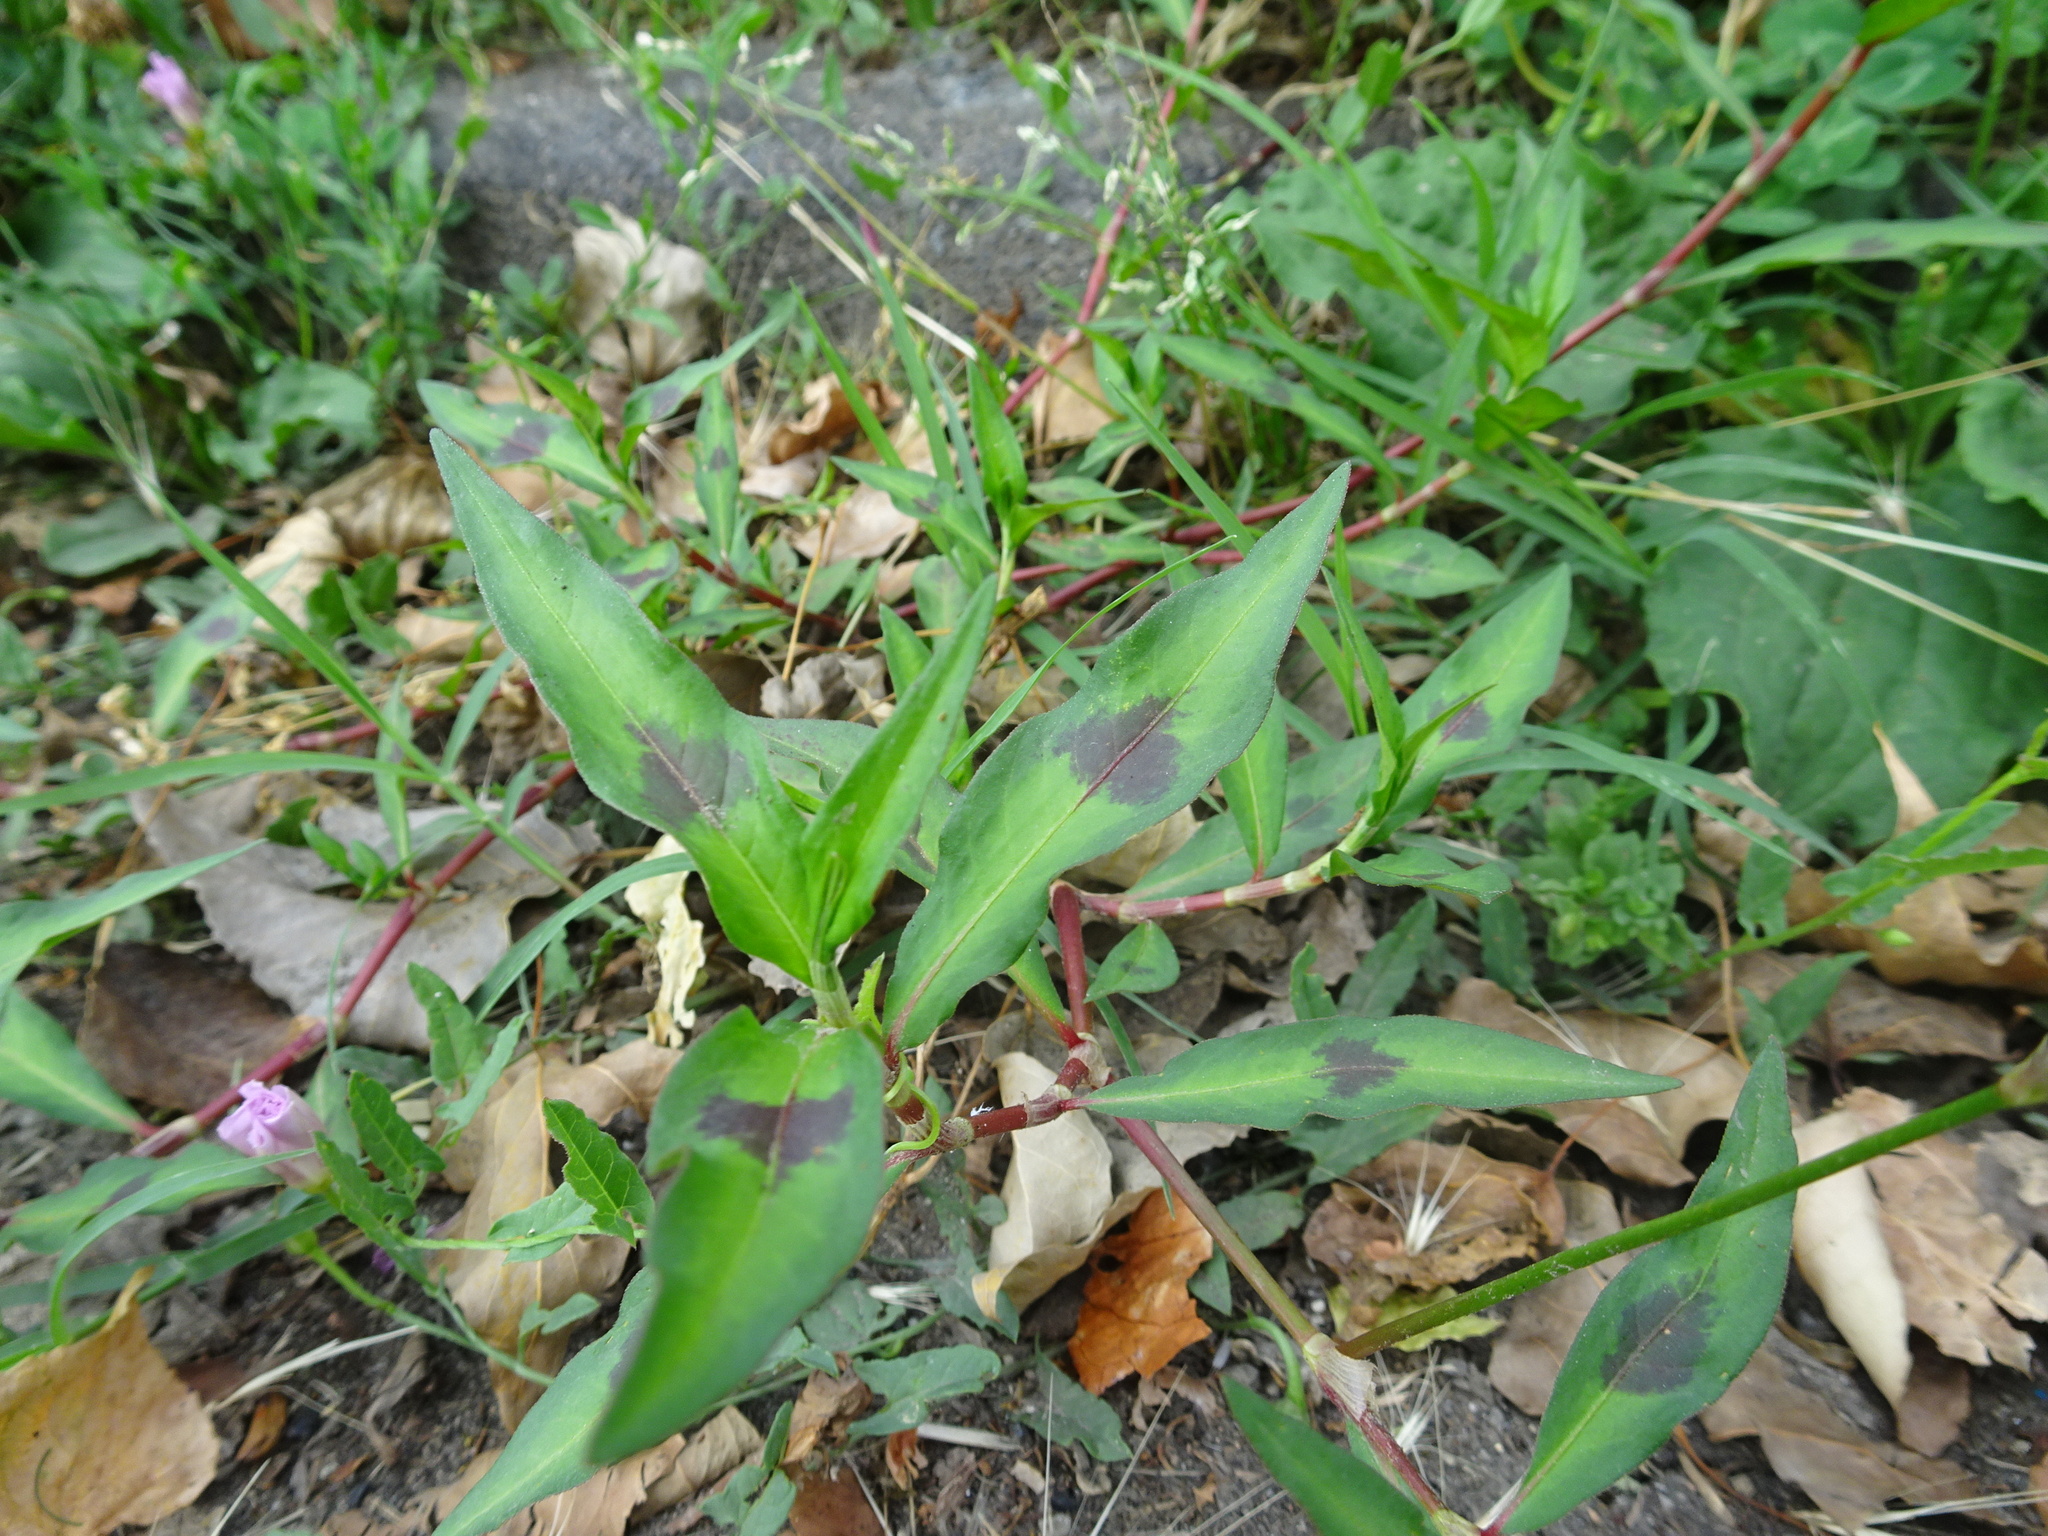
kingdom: Plantae
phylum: Tracheophyta
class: Magnoliopsida
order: Caryophyllales
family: Polygonaceae
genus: Persicaria
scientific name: Persicaria maculosa
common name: Redshank
